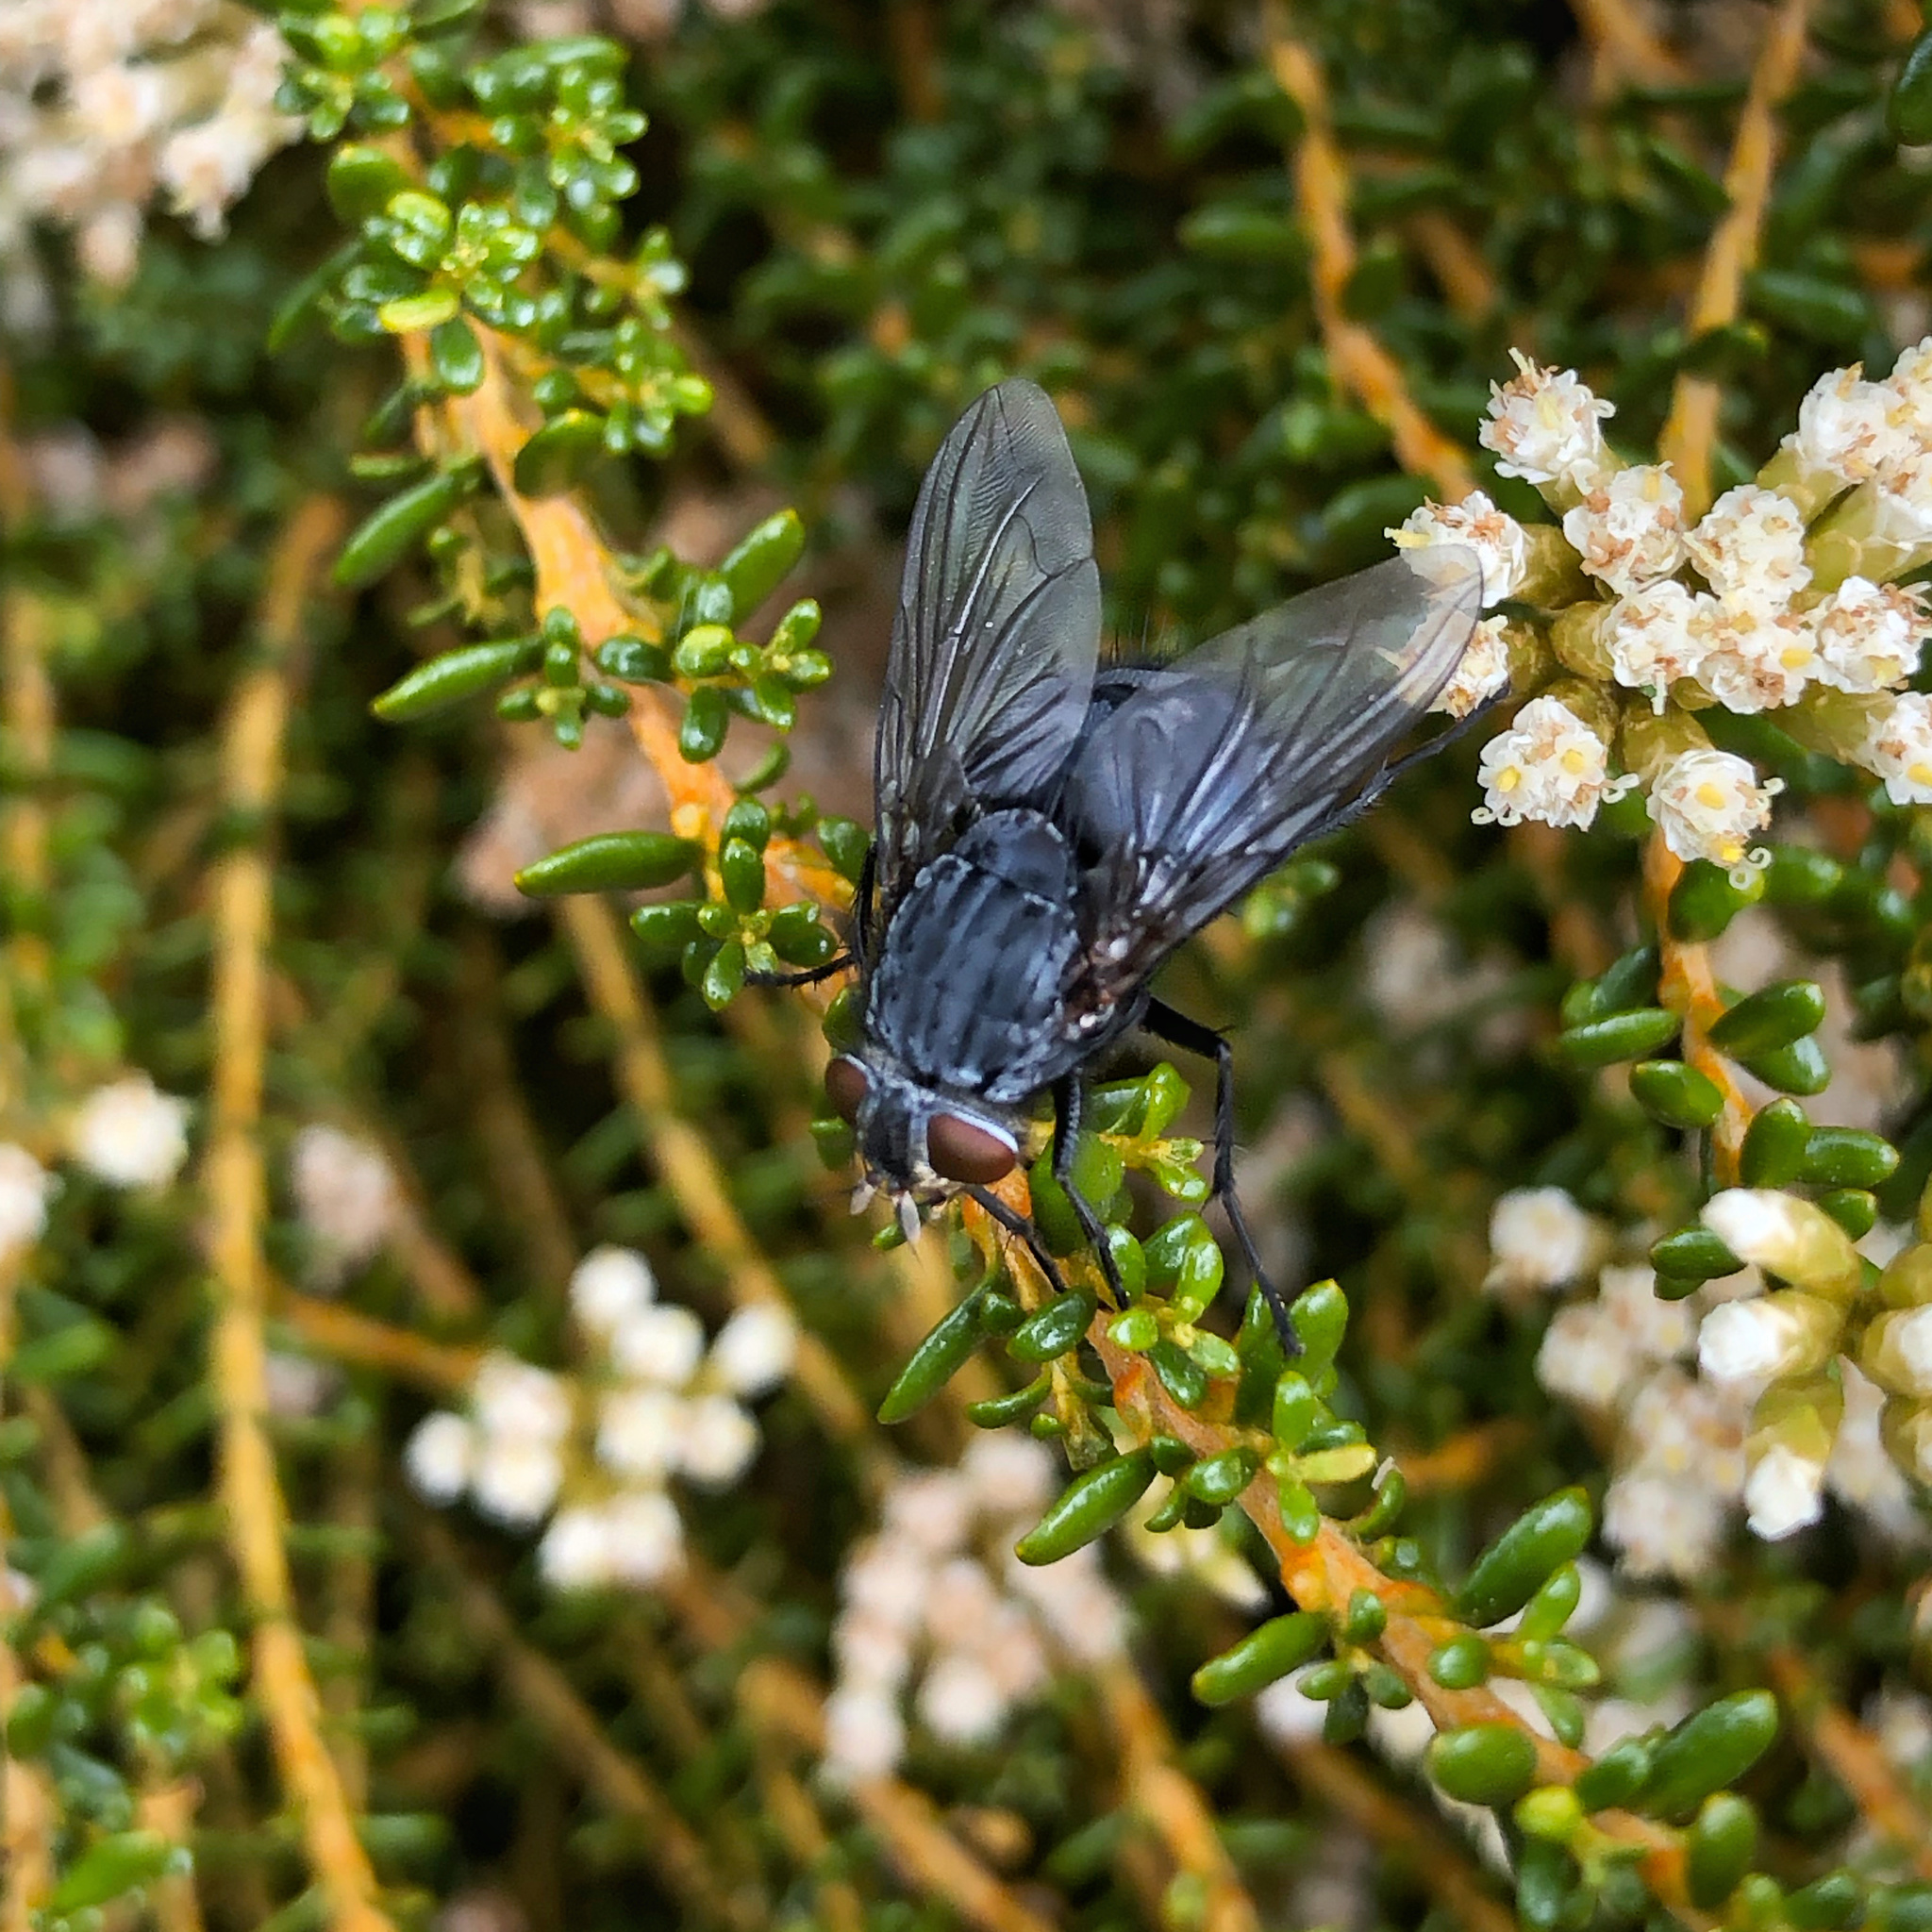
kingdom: Animalia
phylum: Arthropoda
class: Insecta
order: Diptera
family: Calliphoridae
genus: Calliphora
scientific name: Calliphora vicina
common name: Common blow flie
